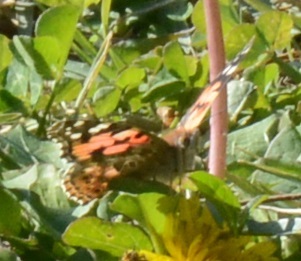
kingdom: Animalia
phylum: Arthropoda
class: Insecta
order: Lepidoptera
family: Nymphalidae
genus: Vanessa
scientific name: Vanessa cardui
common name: Painted lady
